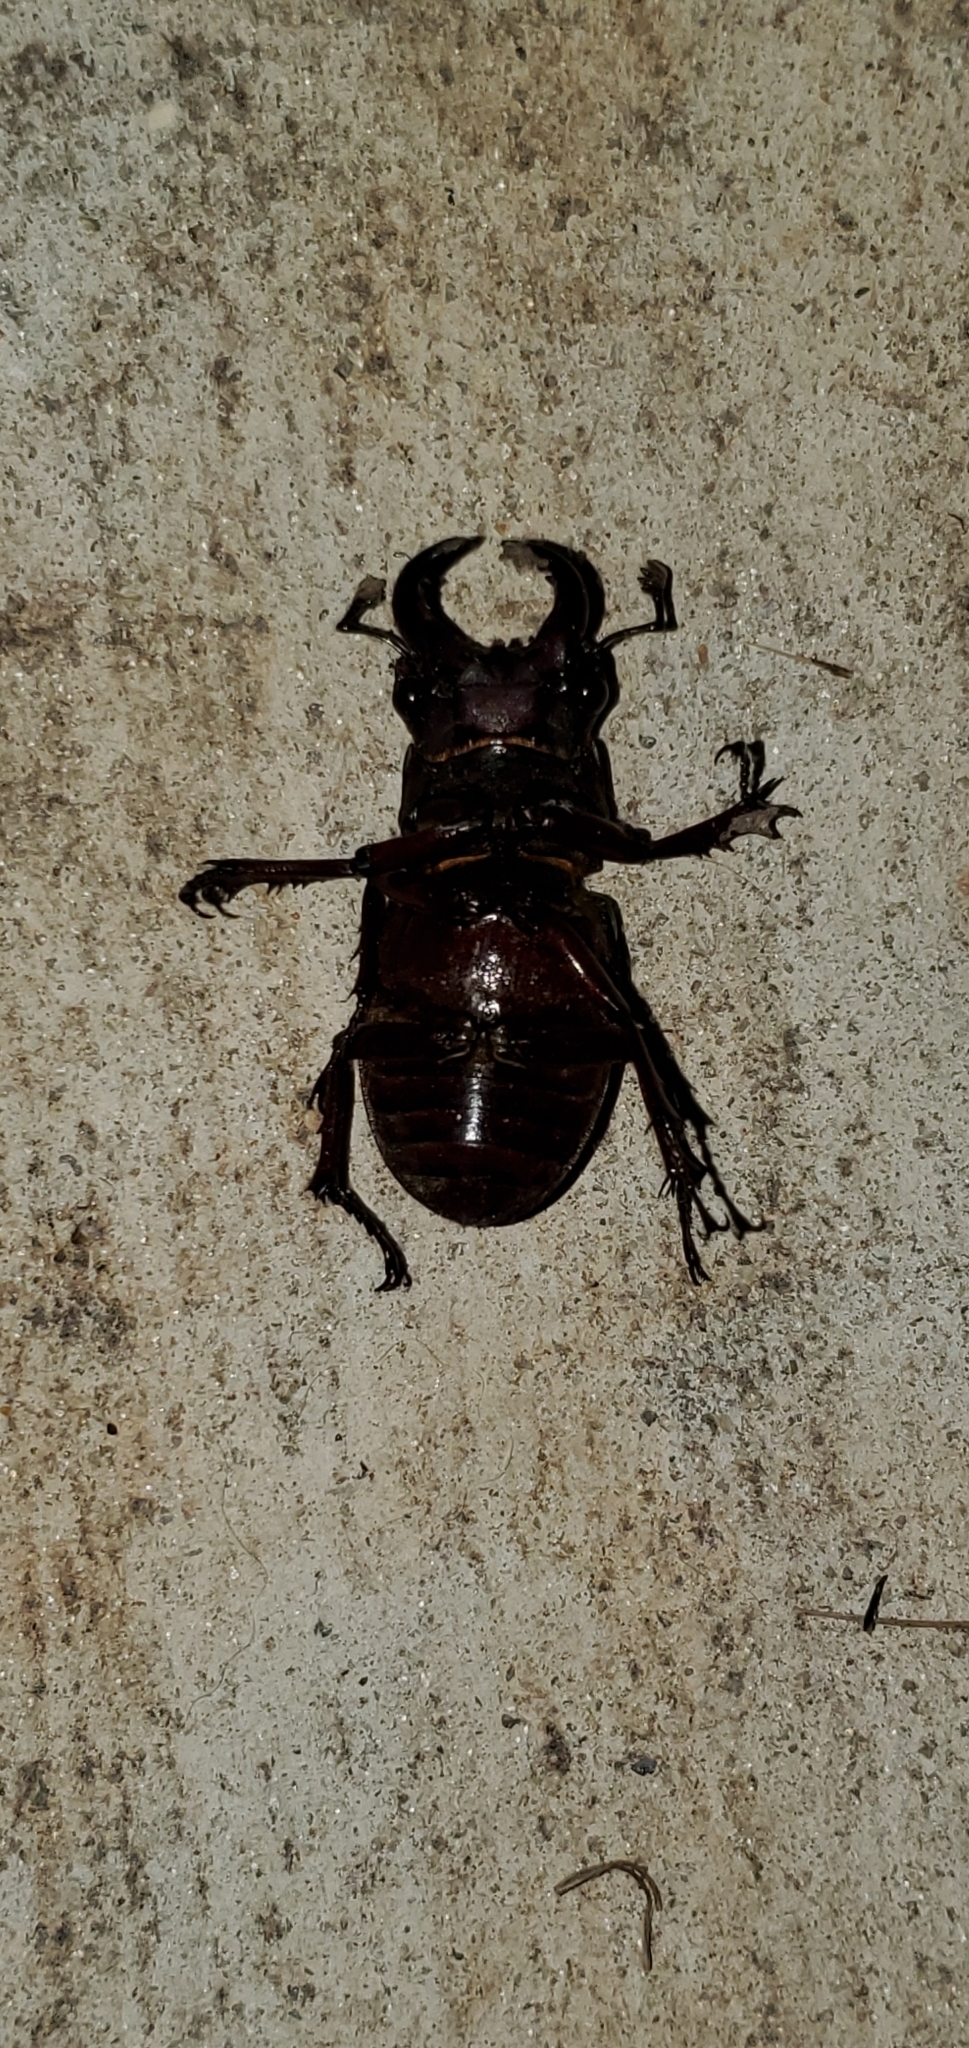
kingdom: Animalia
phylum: Arthropoda
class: Insecta
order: Coleoptera
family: Lucanidae
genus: Lucanus
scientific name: Lucanus capreolus
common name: Stag beetle
